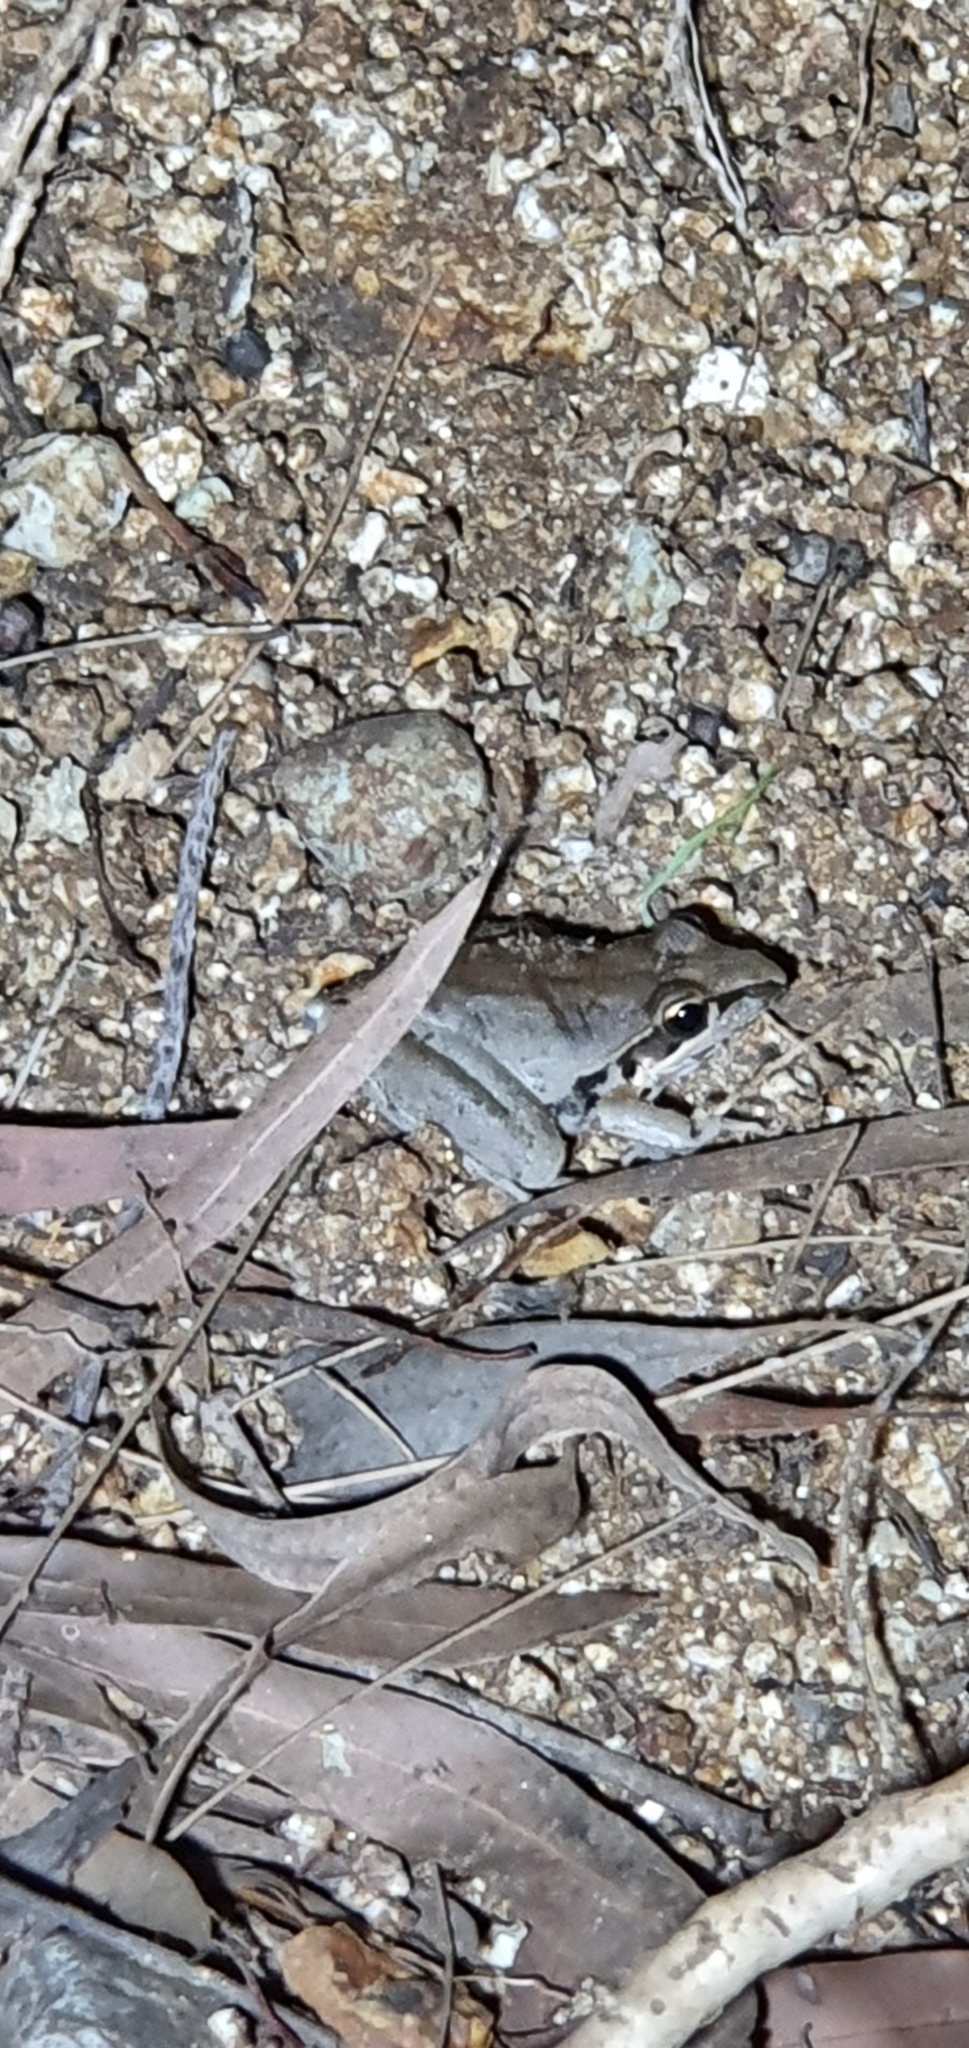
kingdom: Animalia
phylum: Chordata
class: Amphibia
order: Anura
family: Pelodryadidae
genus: Litoria
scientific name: Litoria latopalmata
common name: Broad-palmed rocket frog
